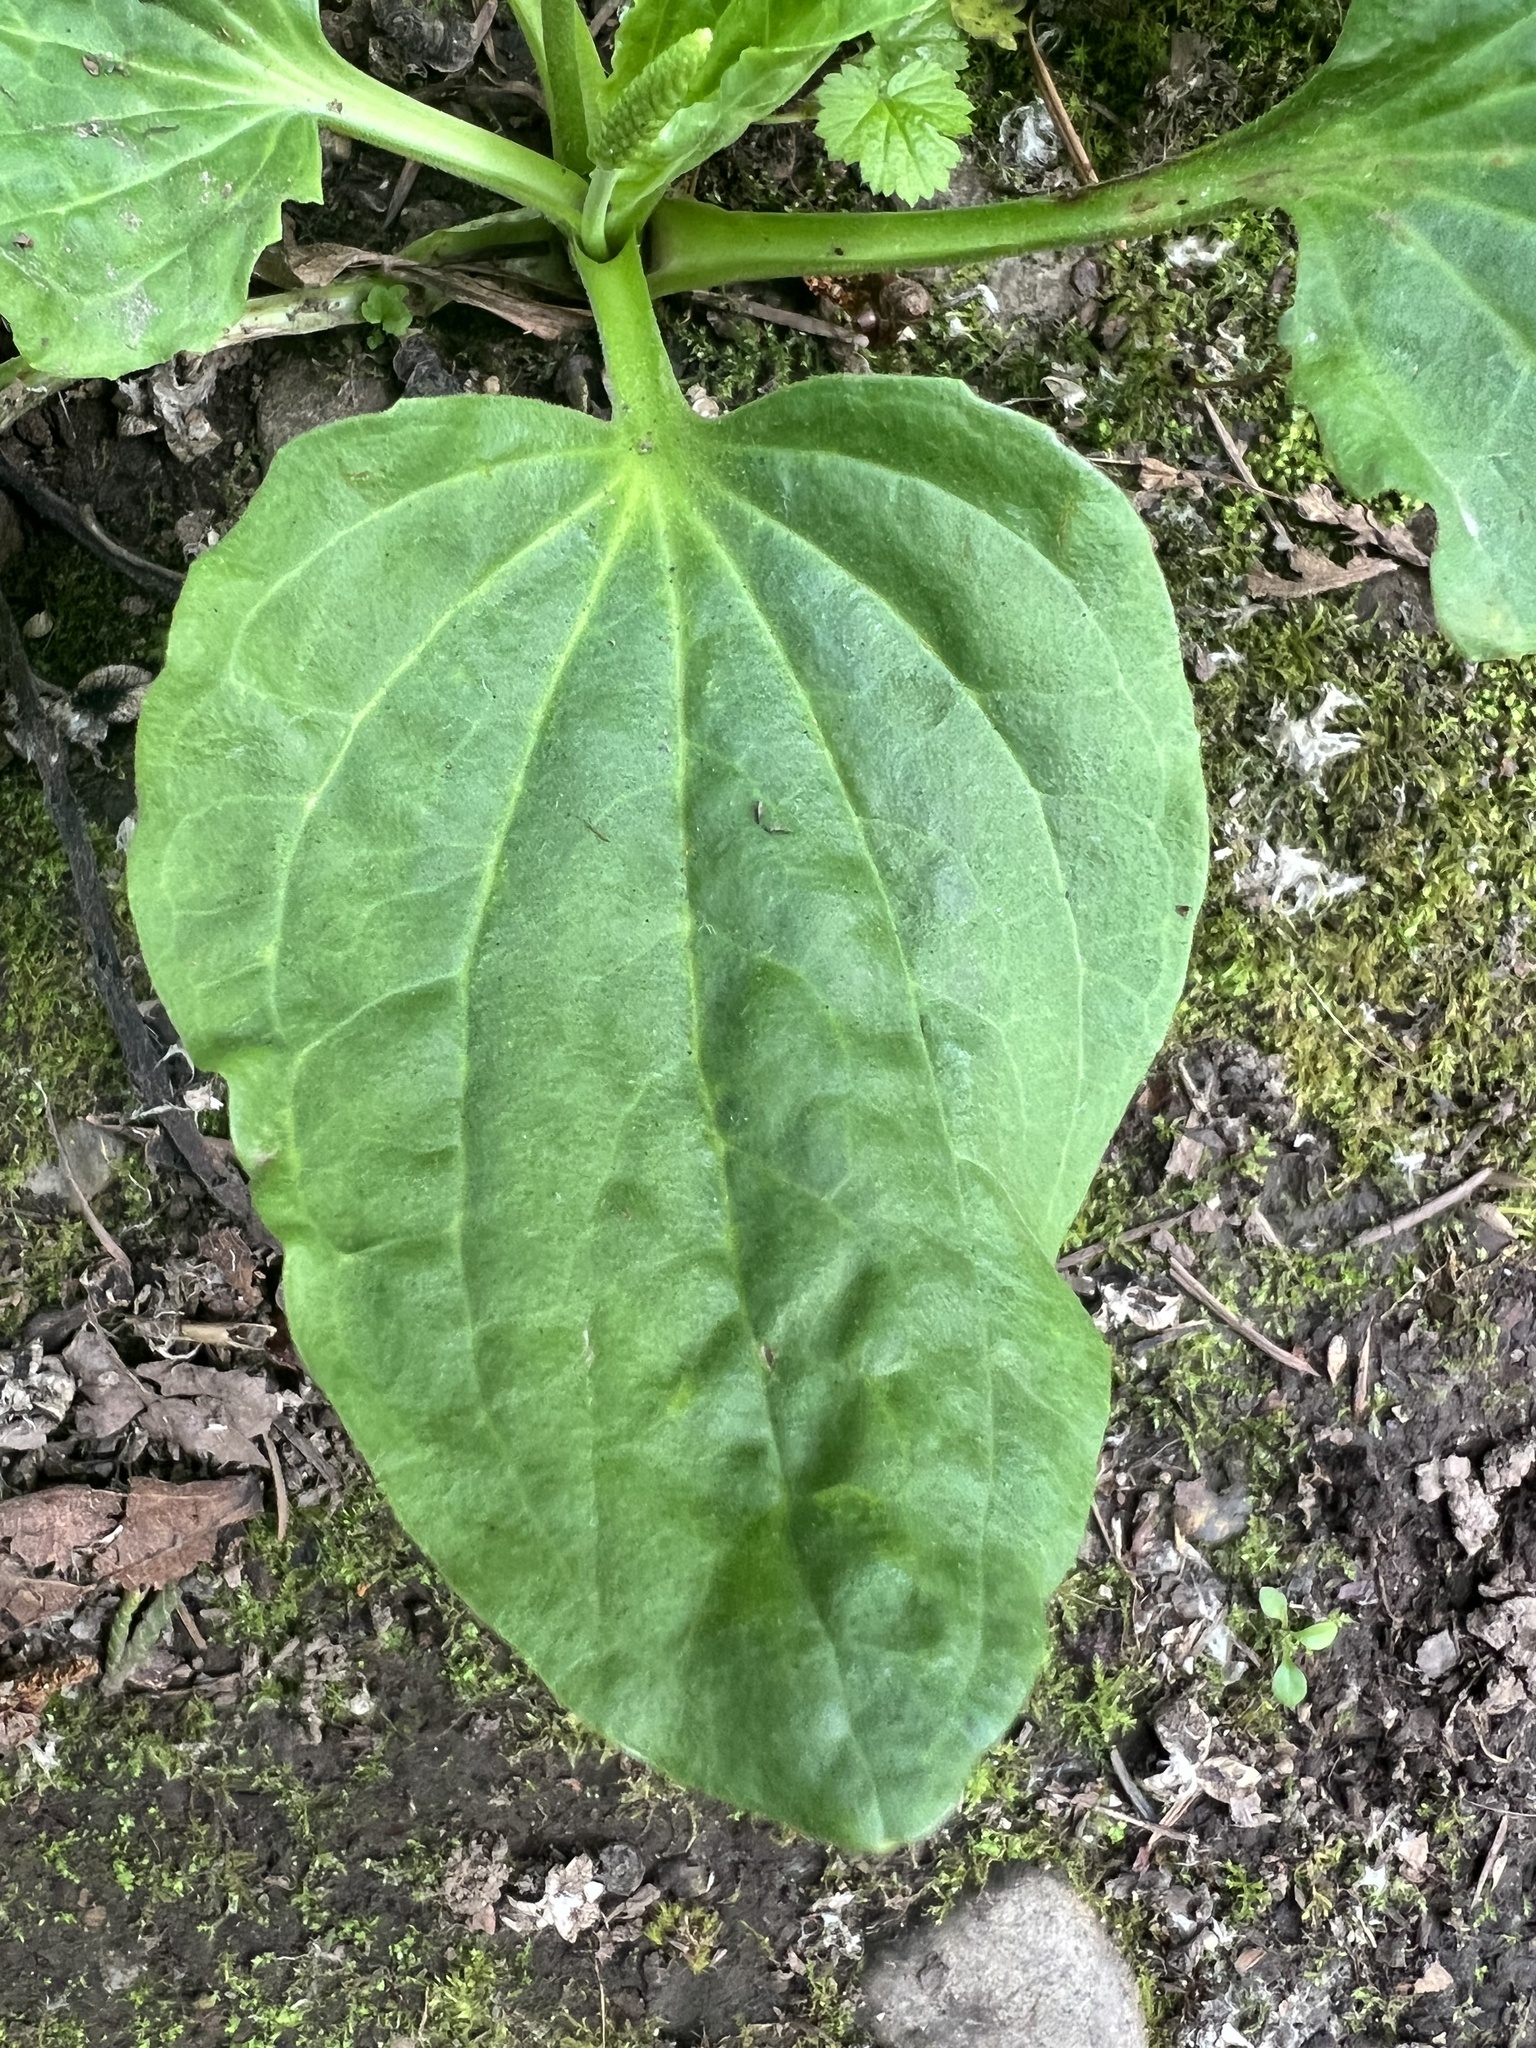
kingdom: Plantae
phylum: Tracheophyta
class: Magnoliopsida
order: Lamiales
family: Plantaginaceae
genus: Plantago
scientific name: Plantago major
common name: Common plantain
